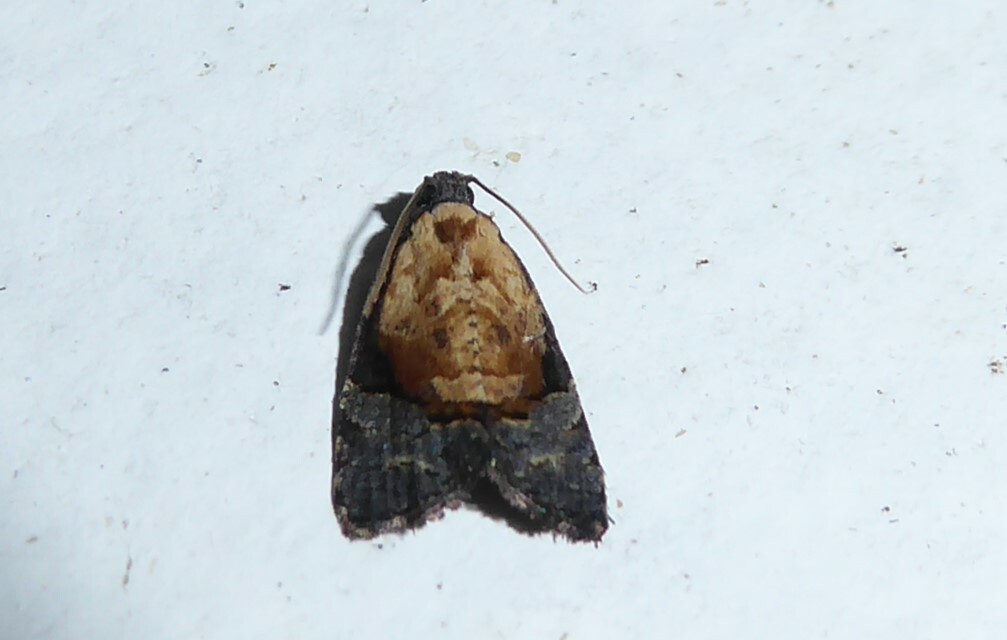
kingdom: Animalia
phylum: Arthropoda
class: Insecta
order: Lepidoptera
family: Tortricidae
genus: Asthenoptycha
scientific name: Asthenoptycha encratopis
